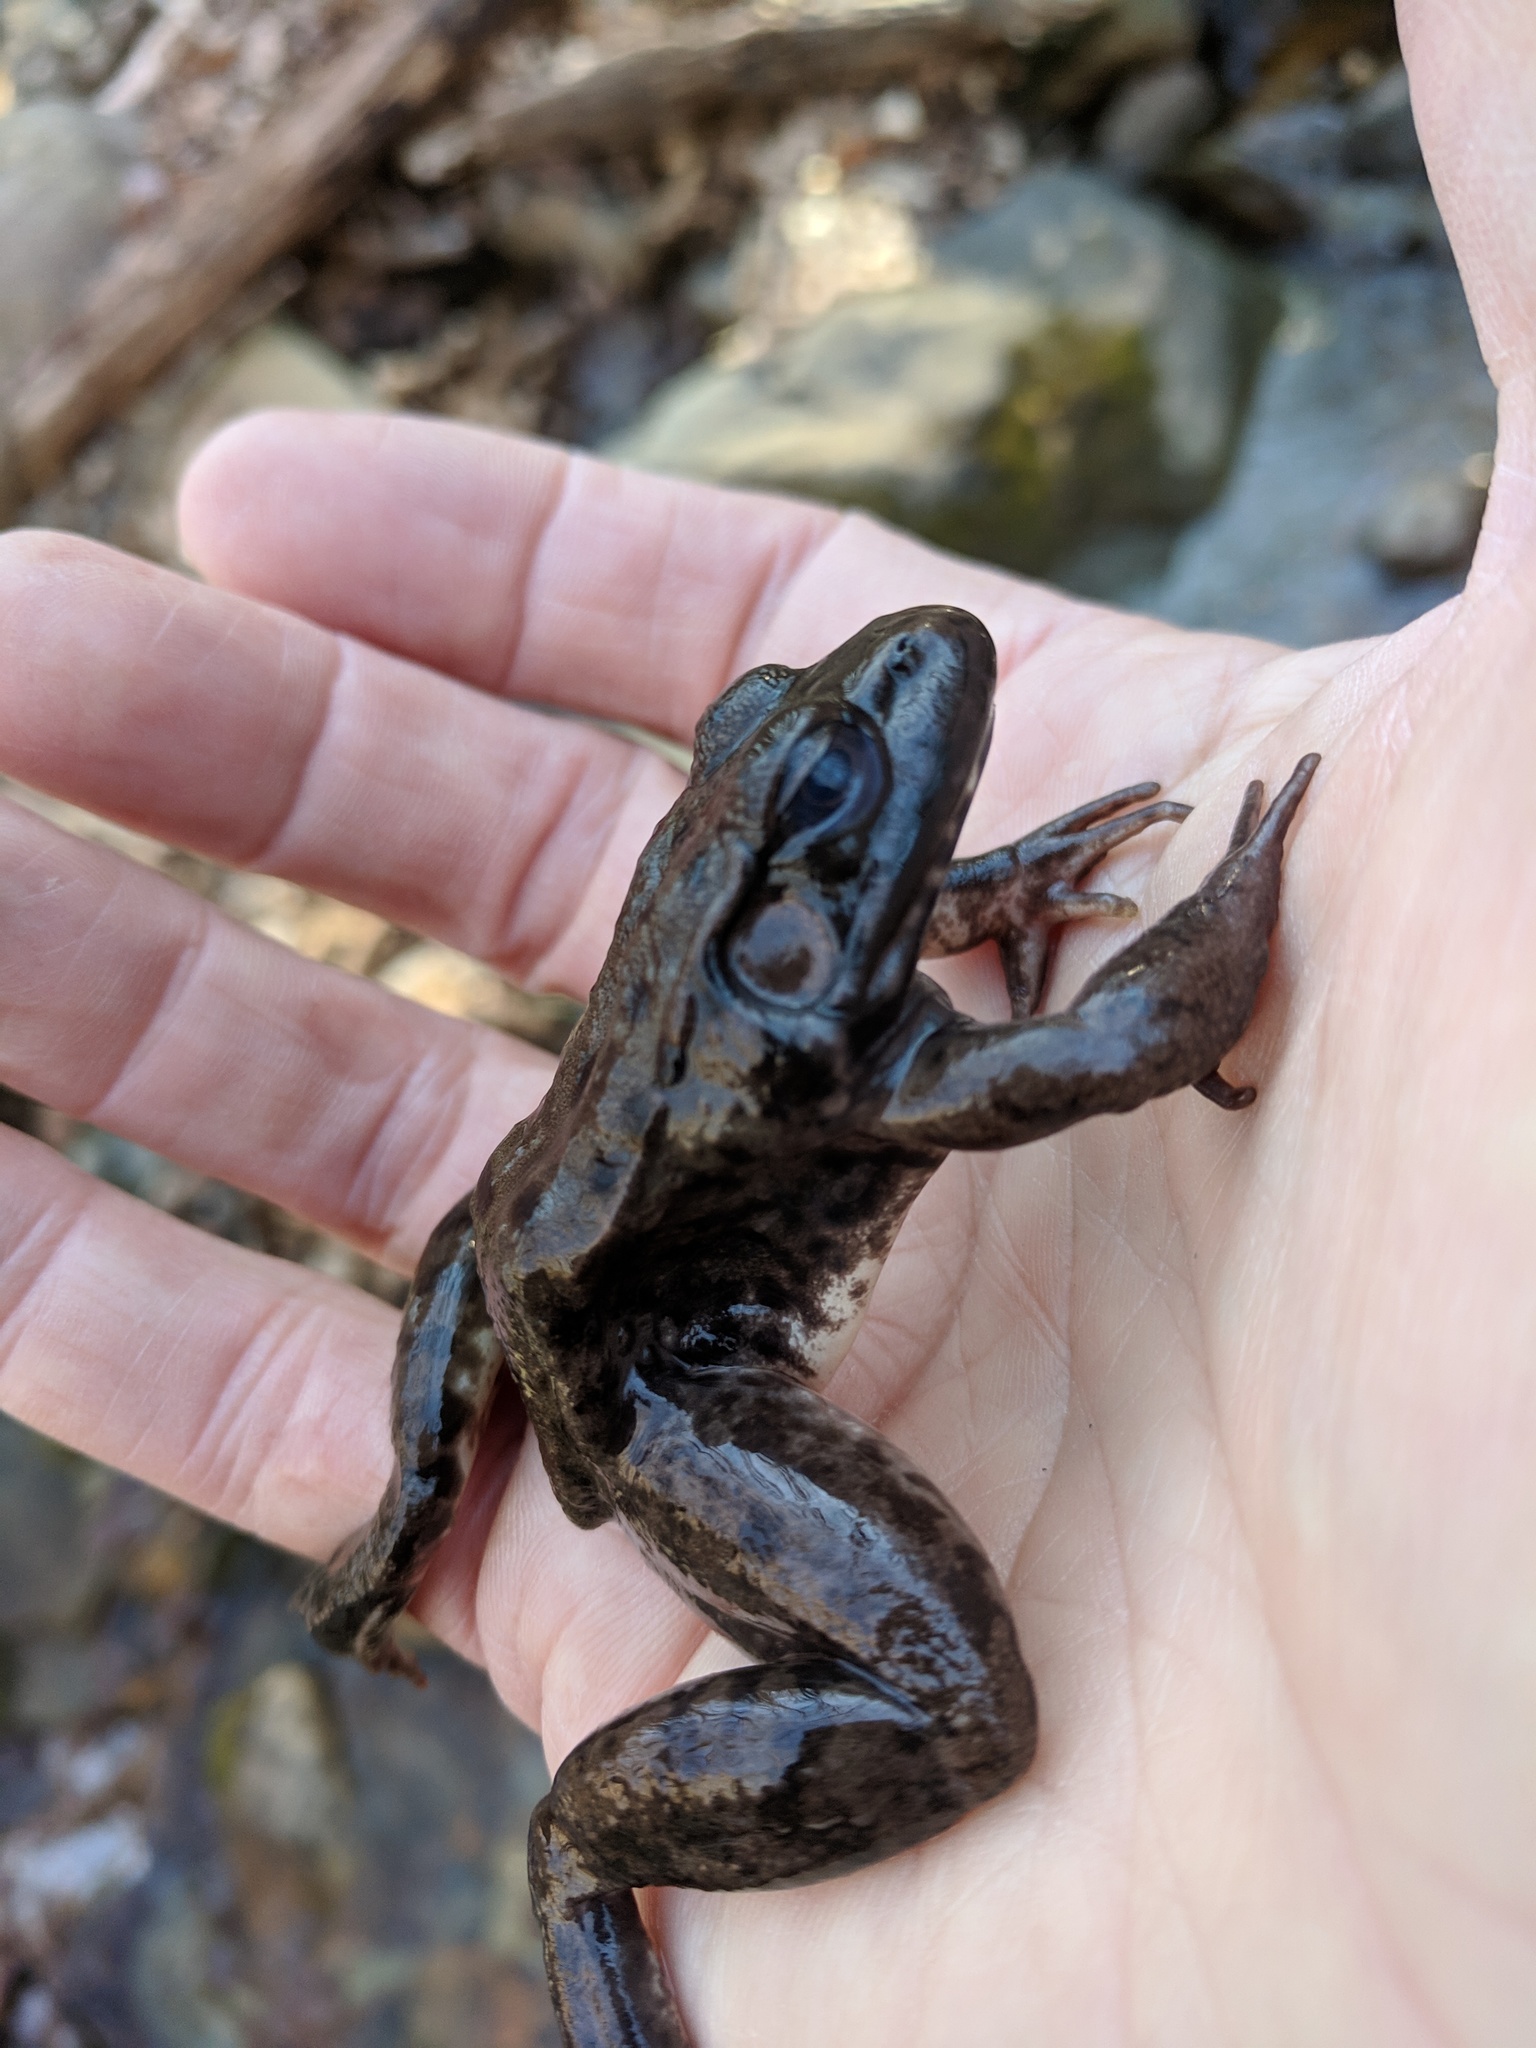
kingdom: Animalia
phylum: Chordata
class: Amphibia
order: Anura
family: Ranidae
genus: Lithobates
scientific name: Lithobates clamitans
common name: Green frog
